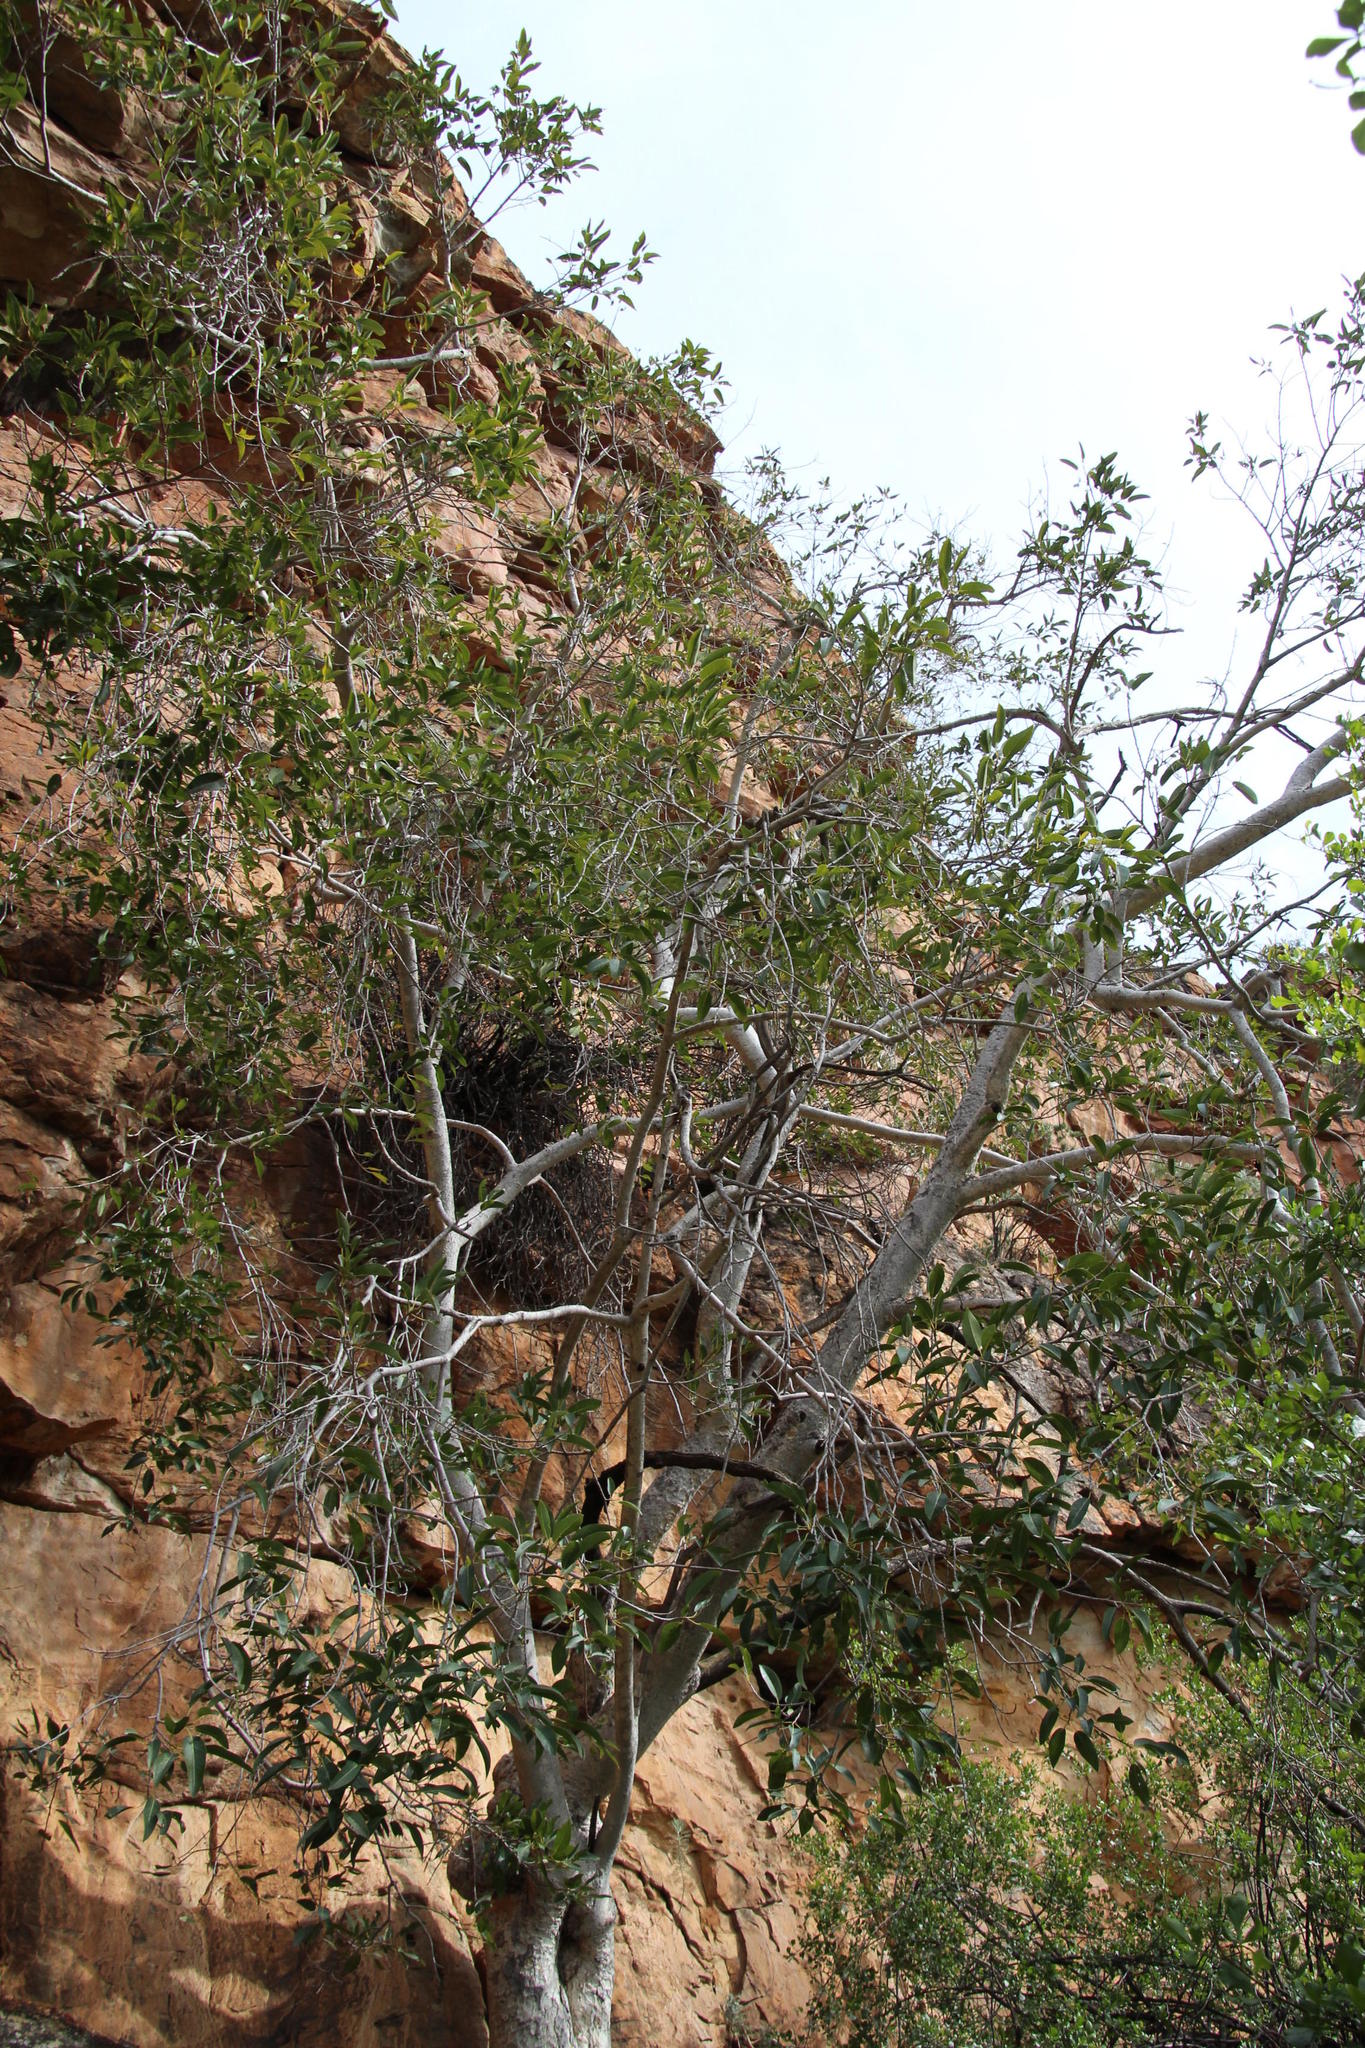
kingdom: Plantae
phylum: Tracheophyta
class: Magnoliopsida
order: Rosales
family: Moraceae
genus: Ficus
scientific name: Ficus cordata
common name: Namaqua rock fig
